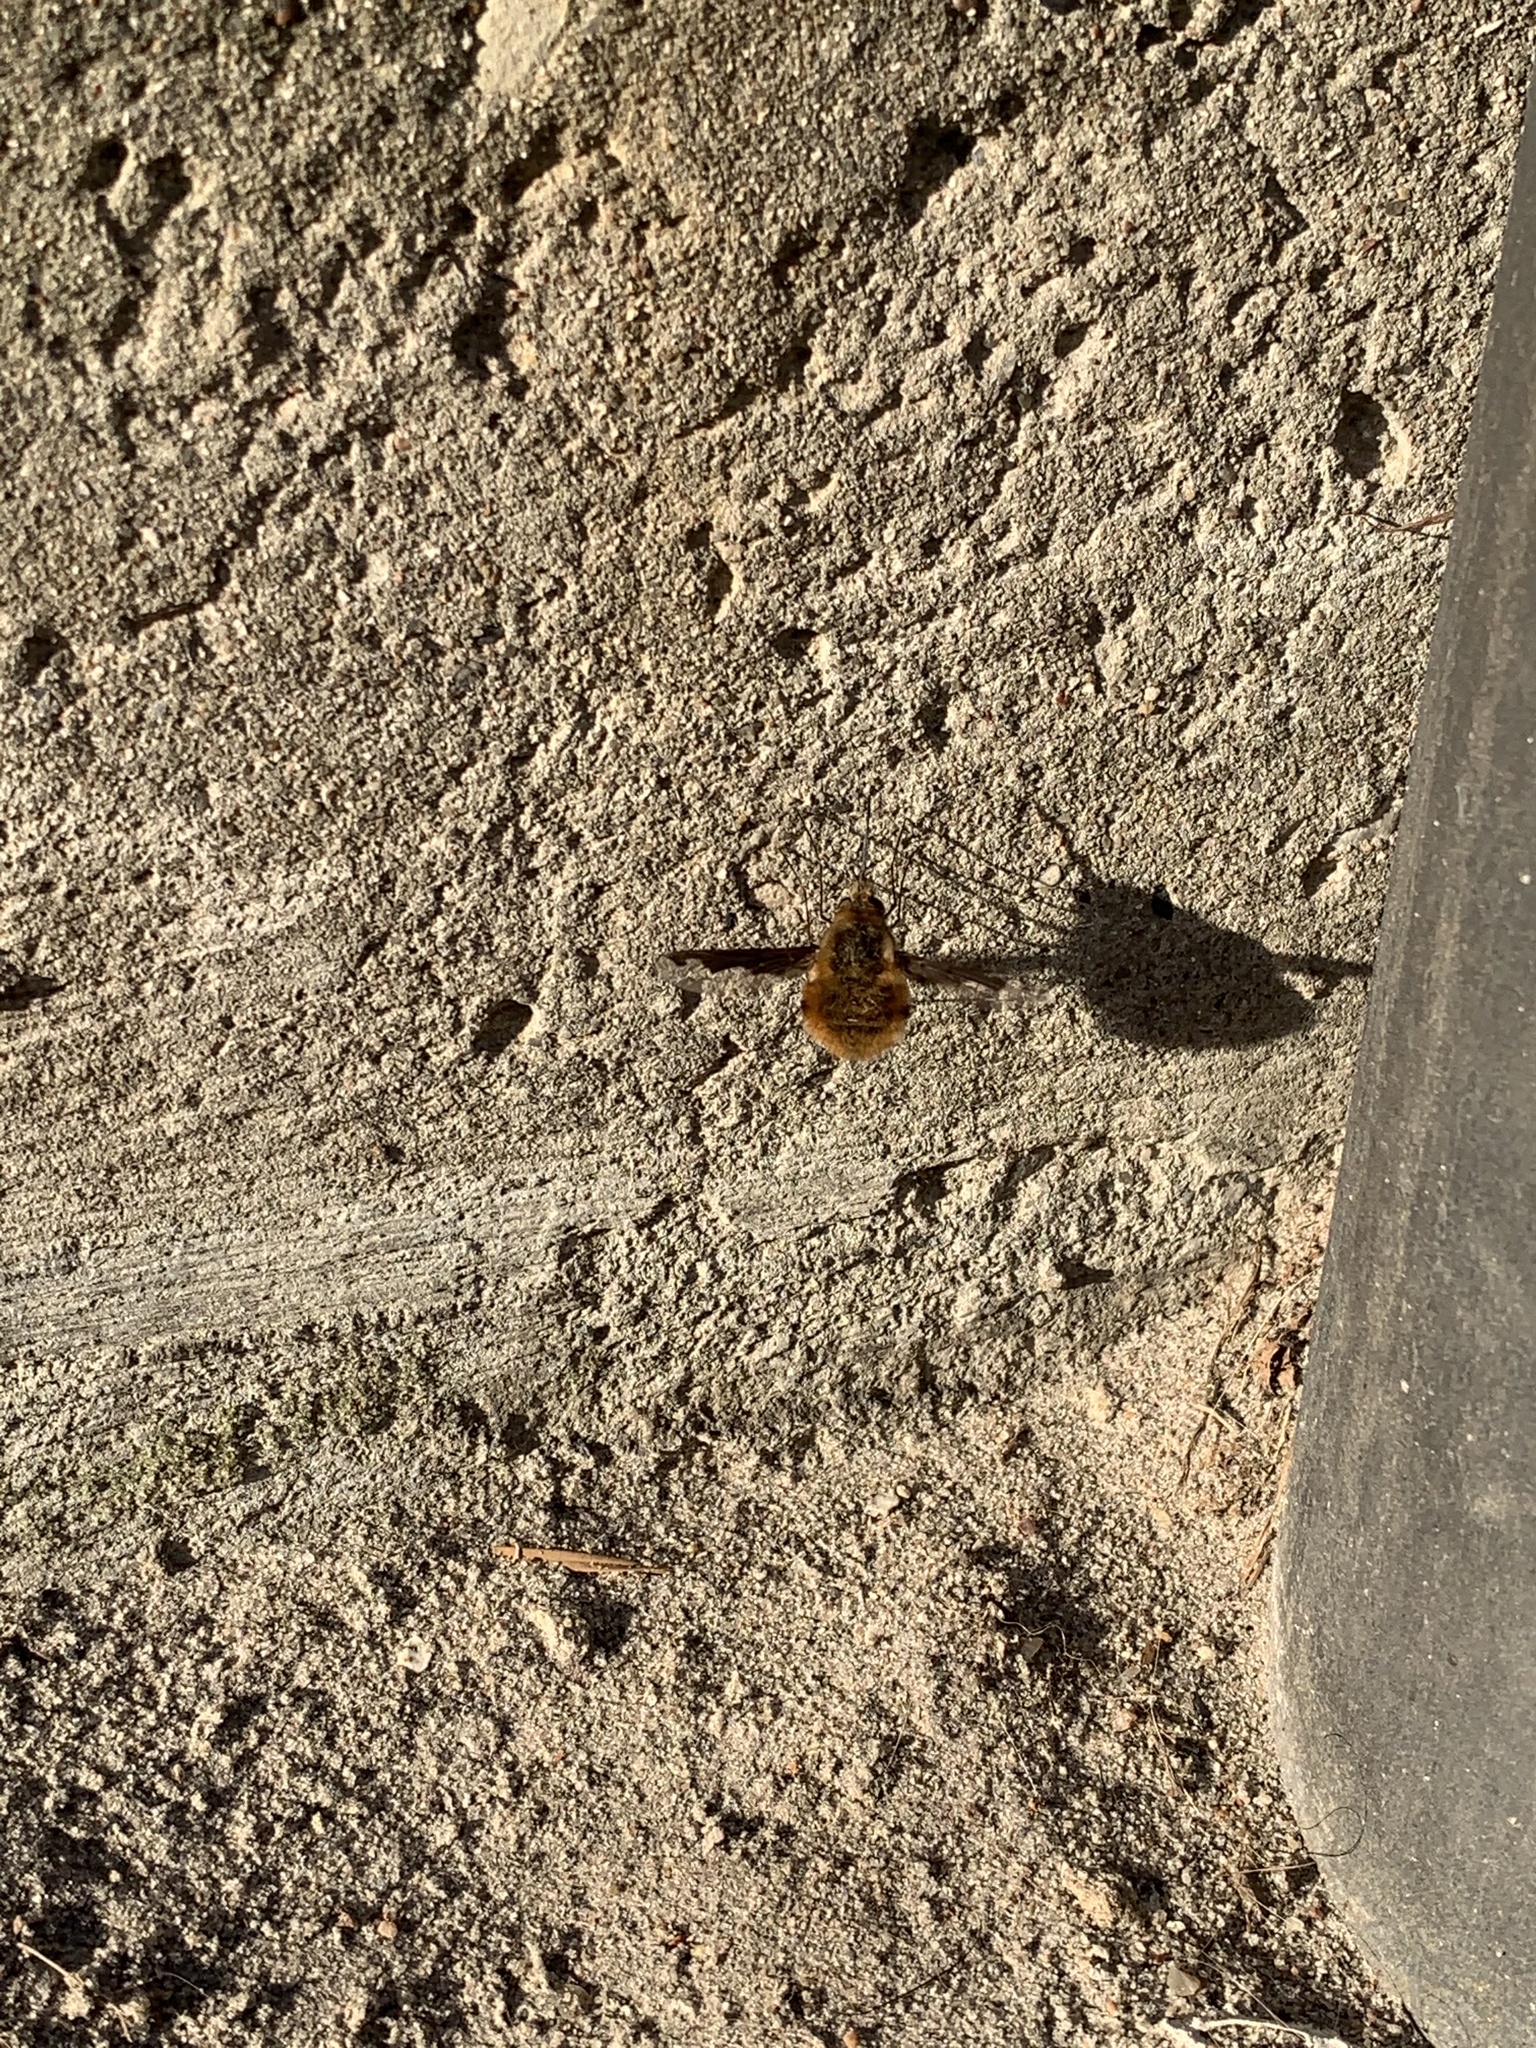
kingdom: Animalia
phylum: Arthropoda
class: Insecta
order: Diptera
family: Bombyliidae
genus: Bombylius
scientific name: Bombylius major
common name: Bee fly
